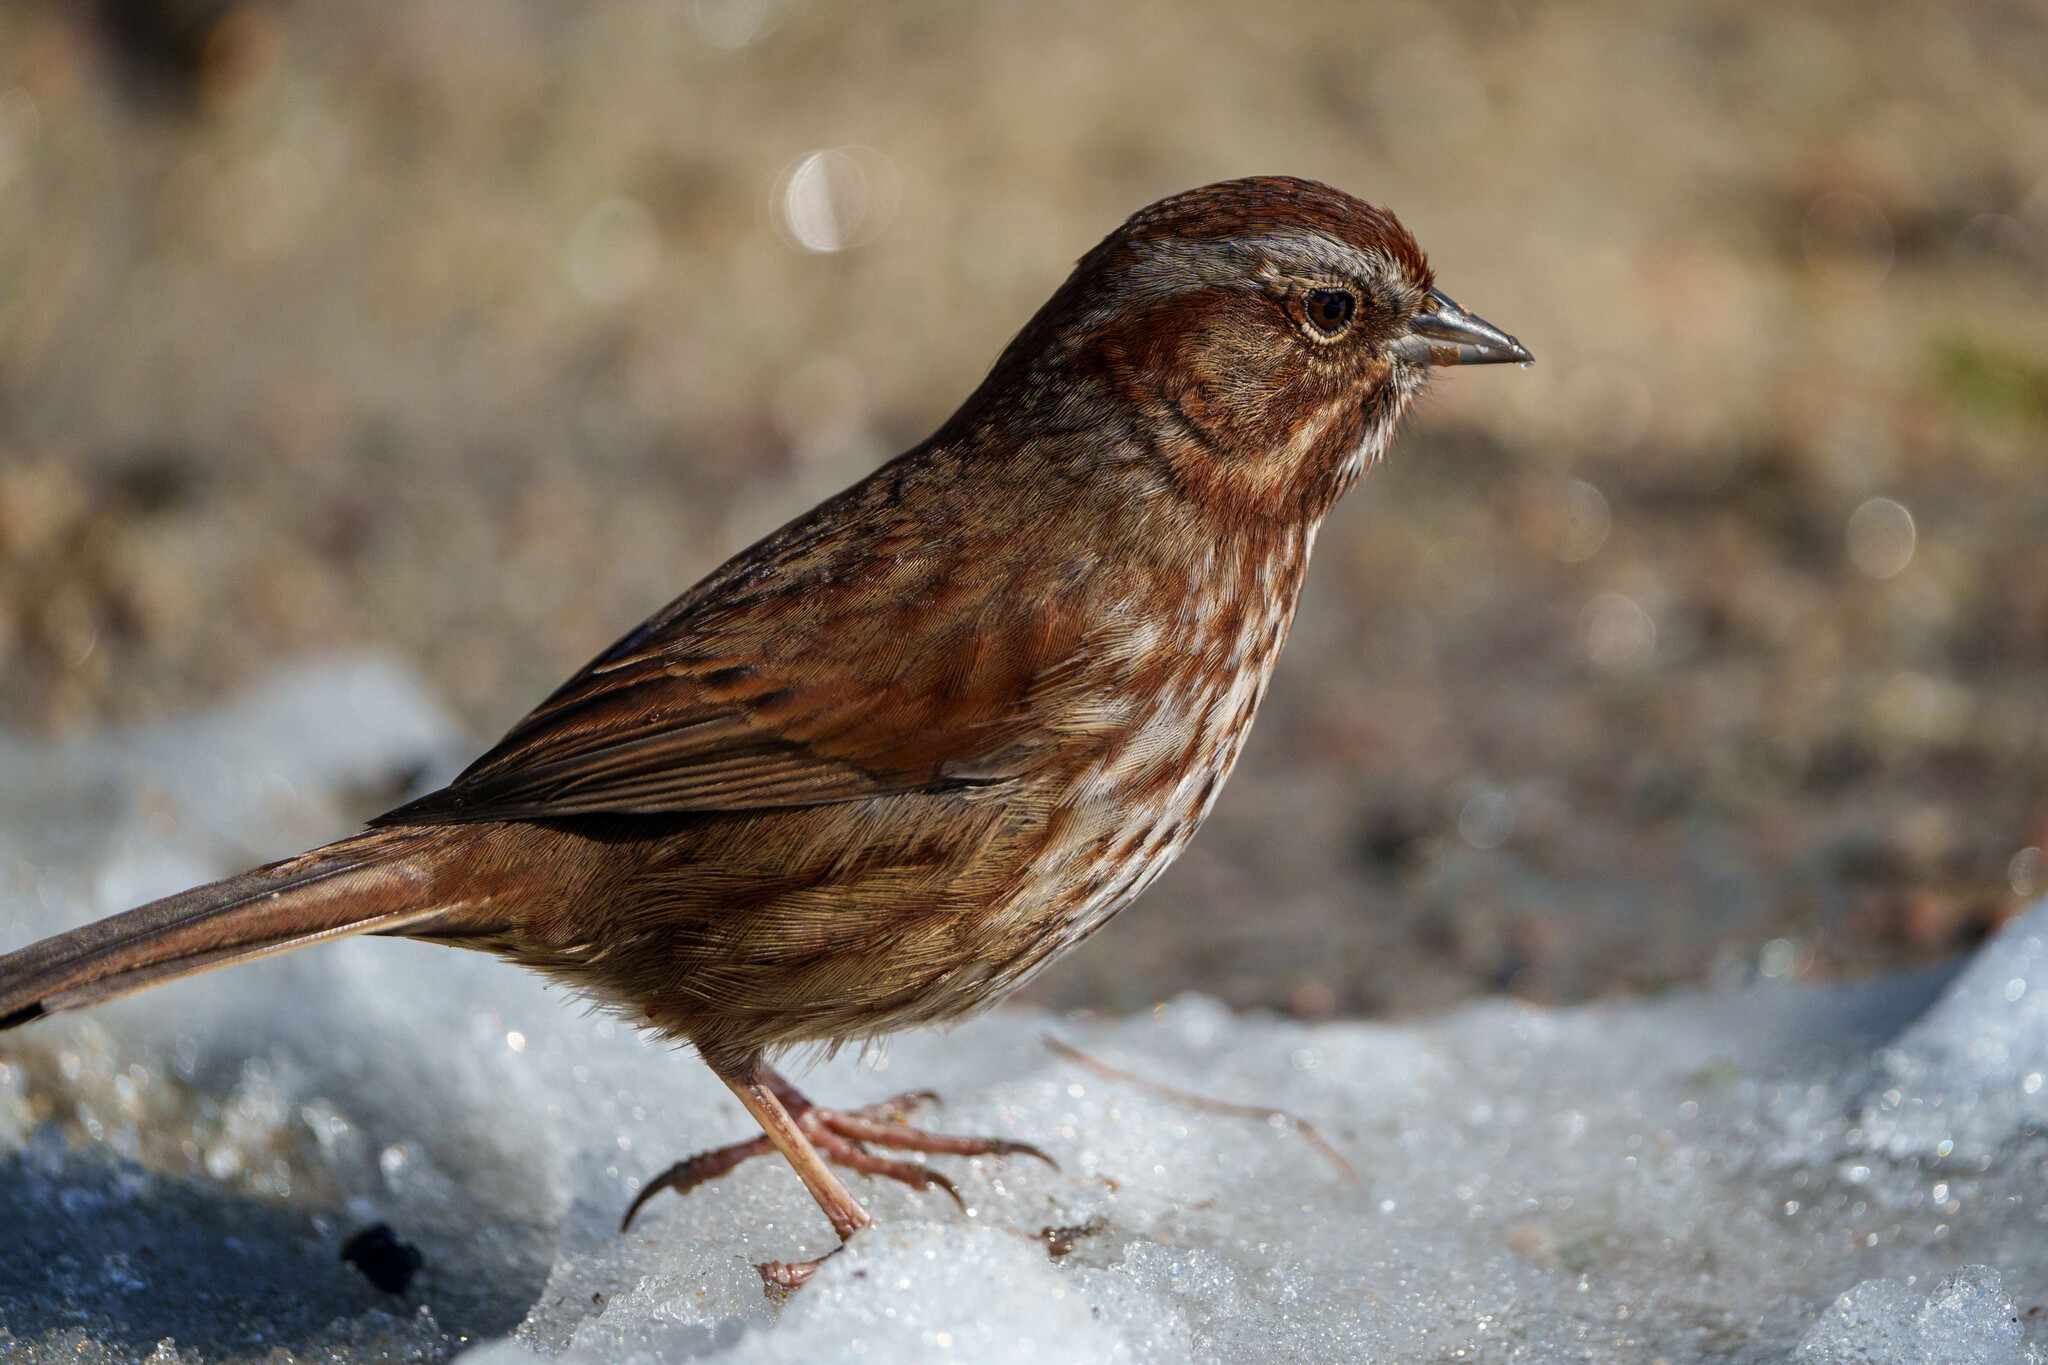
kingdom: Animalia
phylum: Chordata
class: Aves
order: Passeriformes
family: Passerellidae
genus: Melospiza
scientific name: Melospiza melodia
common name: Song sparrow
